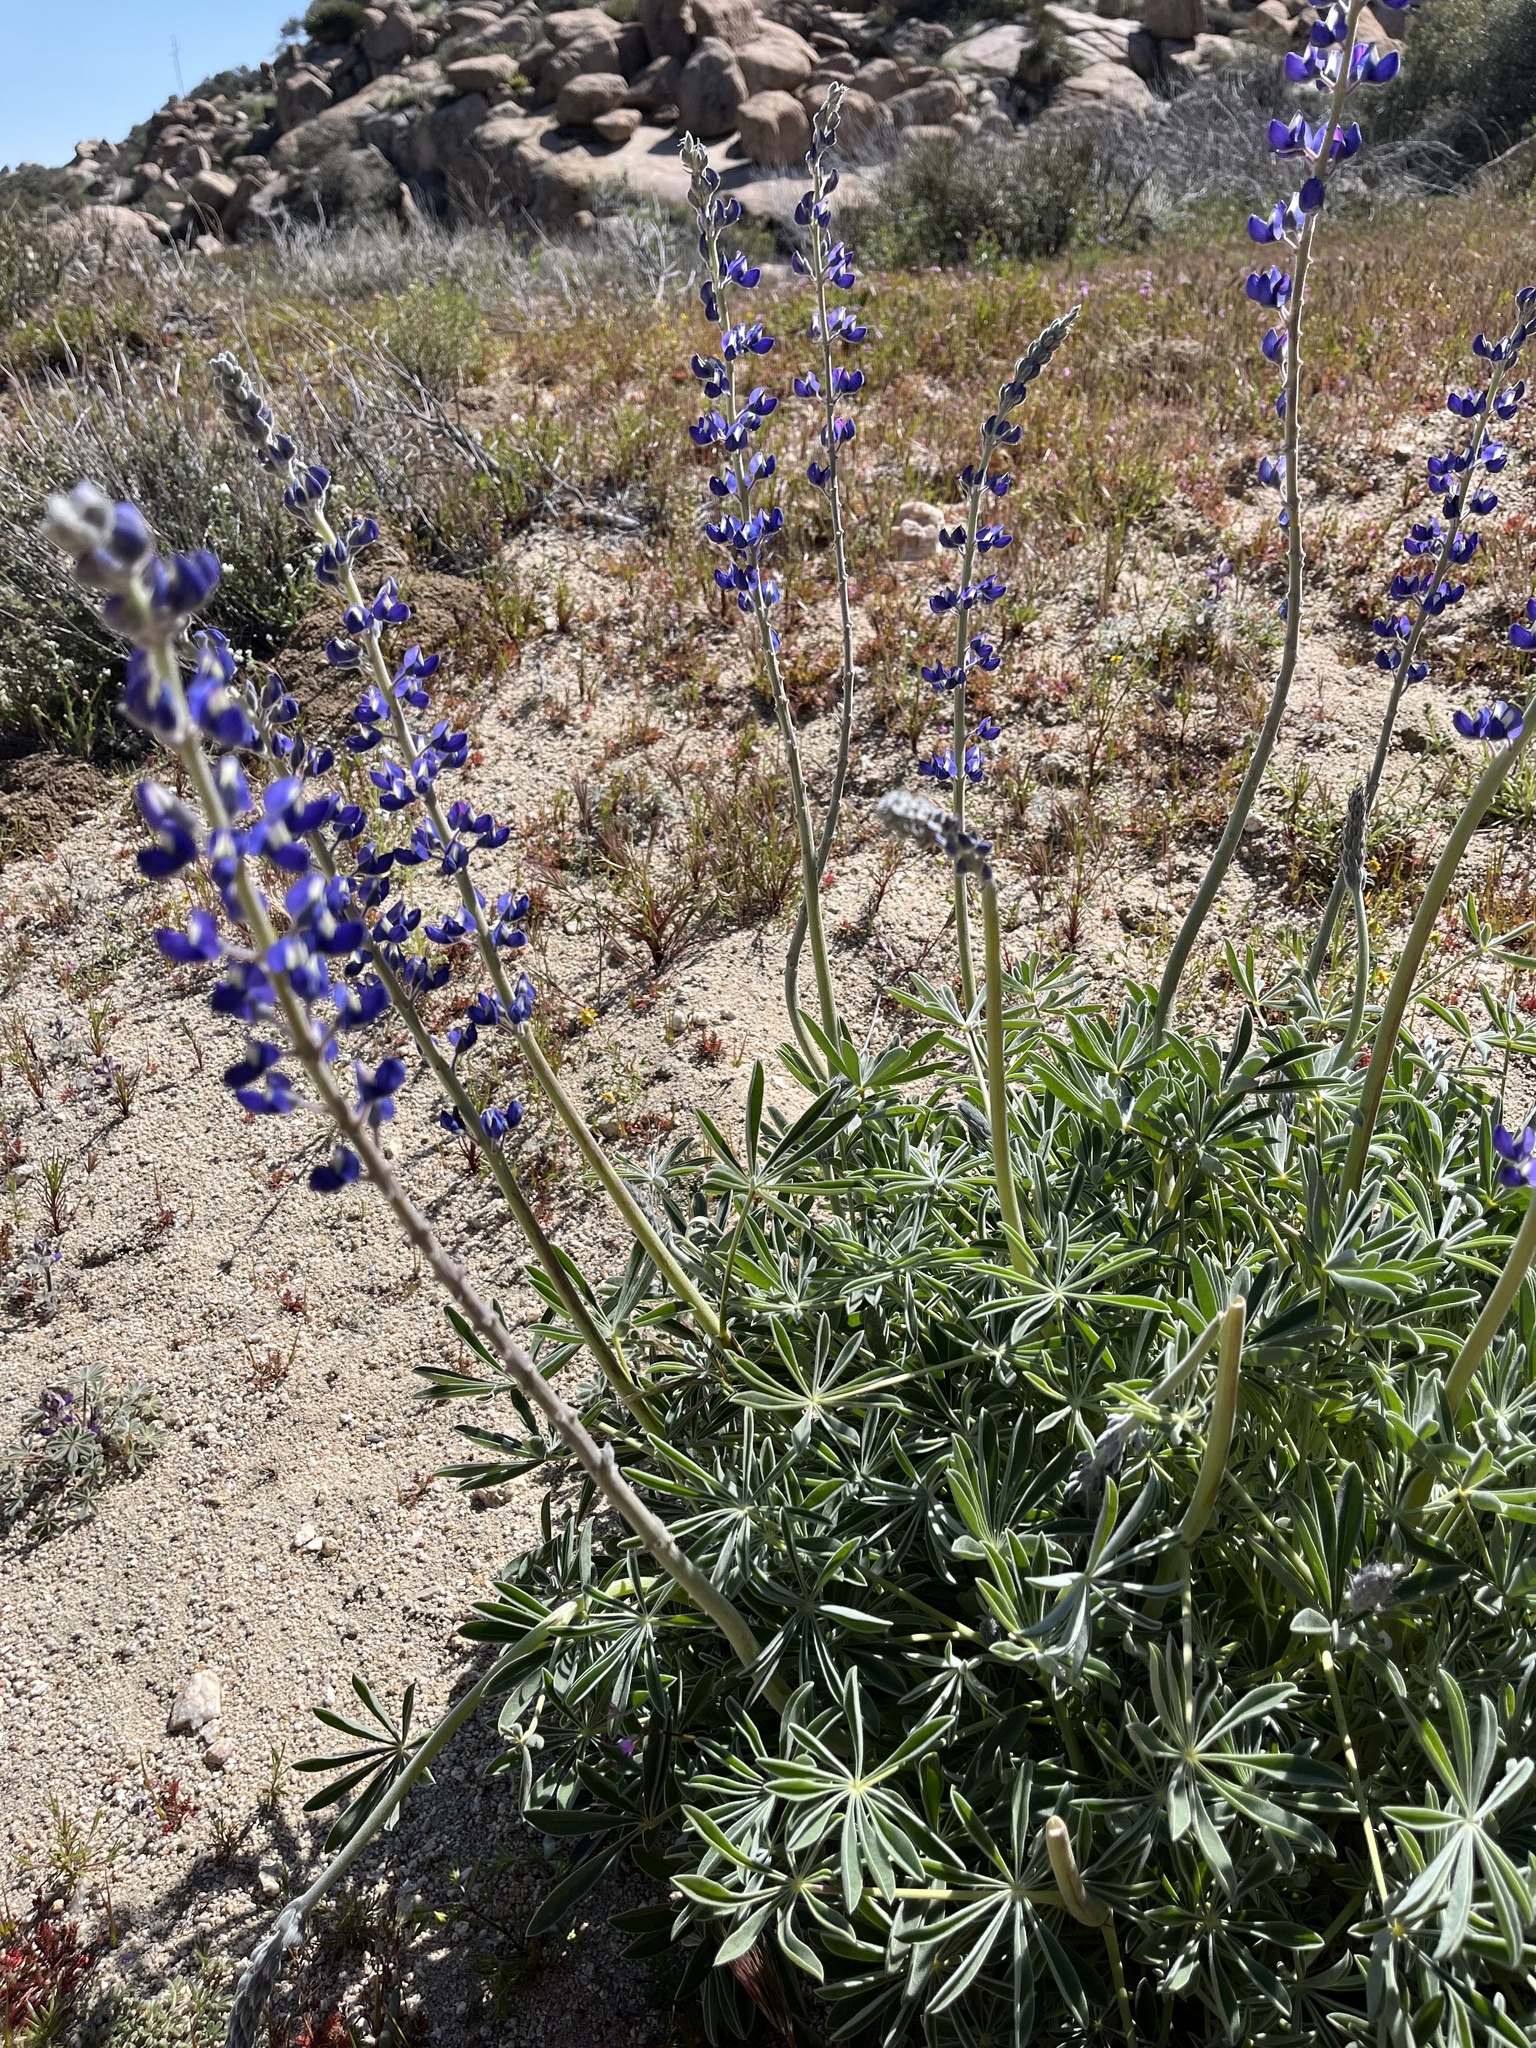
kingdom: Plantae
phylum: Tracheophyta
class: Magnoliopsida
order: Fabales
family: Fabaceae
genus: Lupinus
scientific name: Lupinus excubitus
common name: Grape soda lupine
